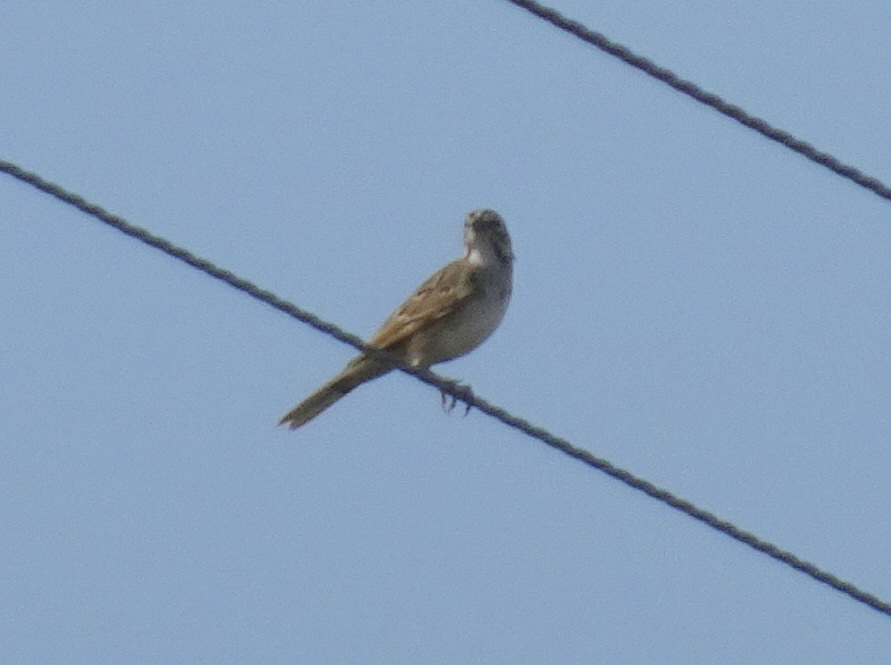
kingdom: Animalia
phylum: Chordata
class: Aves
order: Passeriformes
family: Passerellidae
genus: Chondestes
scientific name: Chondestes grammacus
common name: Lark sparrow
